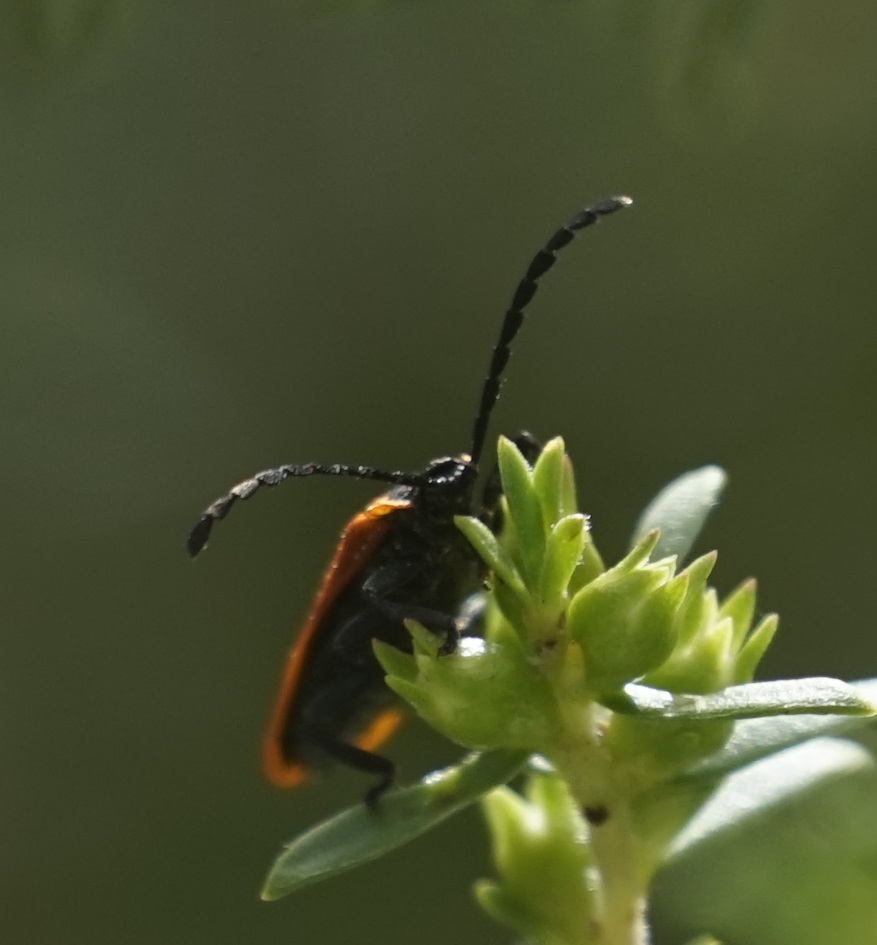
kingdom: Animalia
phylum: Arthropoda
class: Insecta
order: Coleoptera
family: Lycidae
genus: Porrostoma
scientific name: Porrostoma
